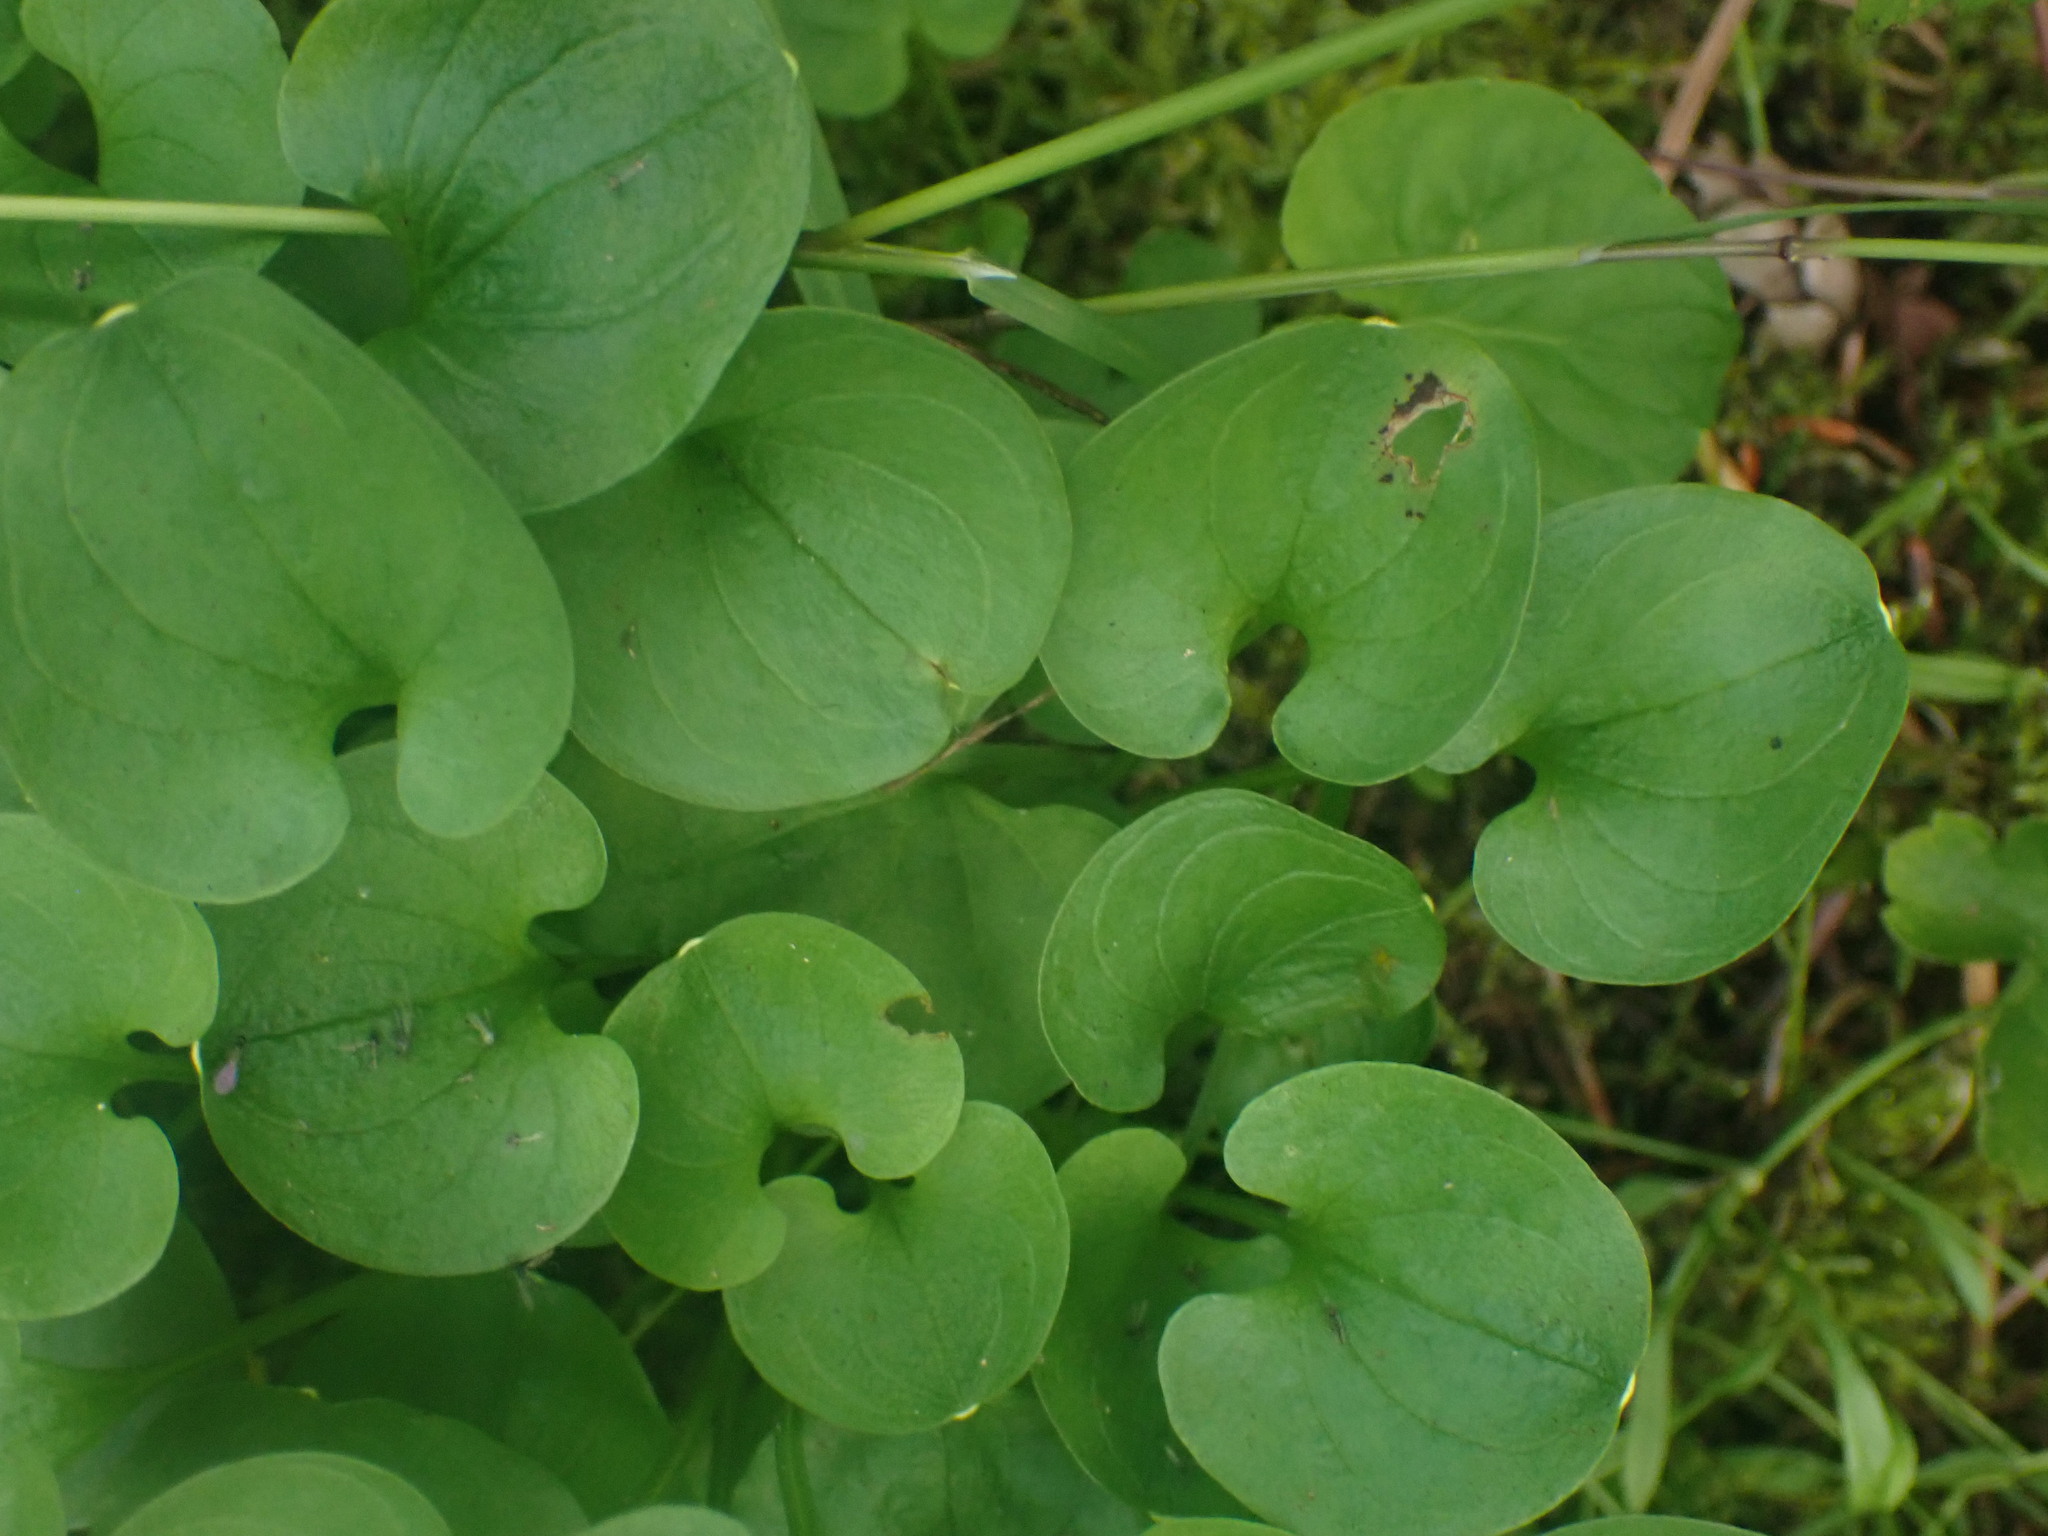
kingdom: Plantae
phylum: Tracheophyta
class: Magnoliopsida
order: Celastrales
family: Parnassiaceae
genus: Parnassia
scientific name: Parnassia fimbriata
